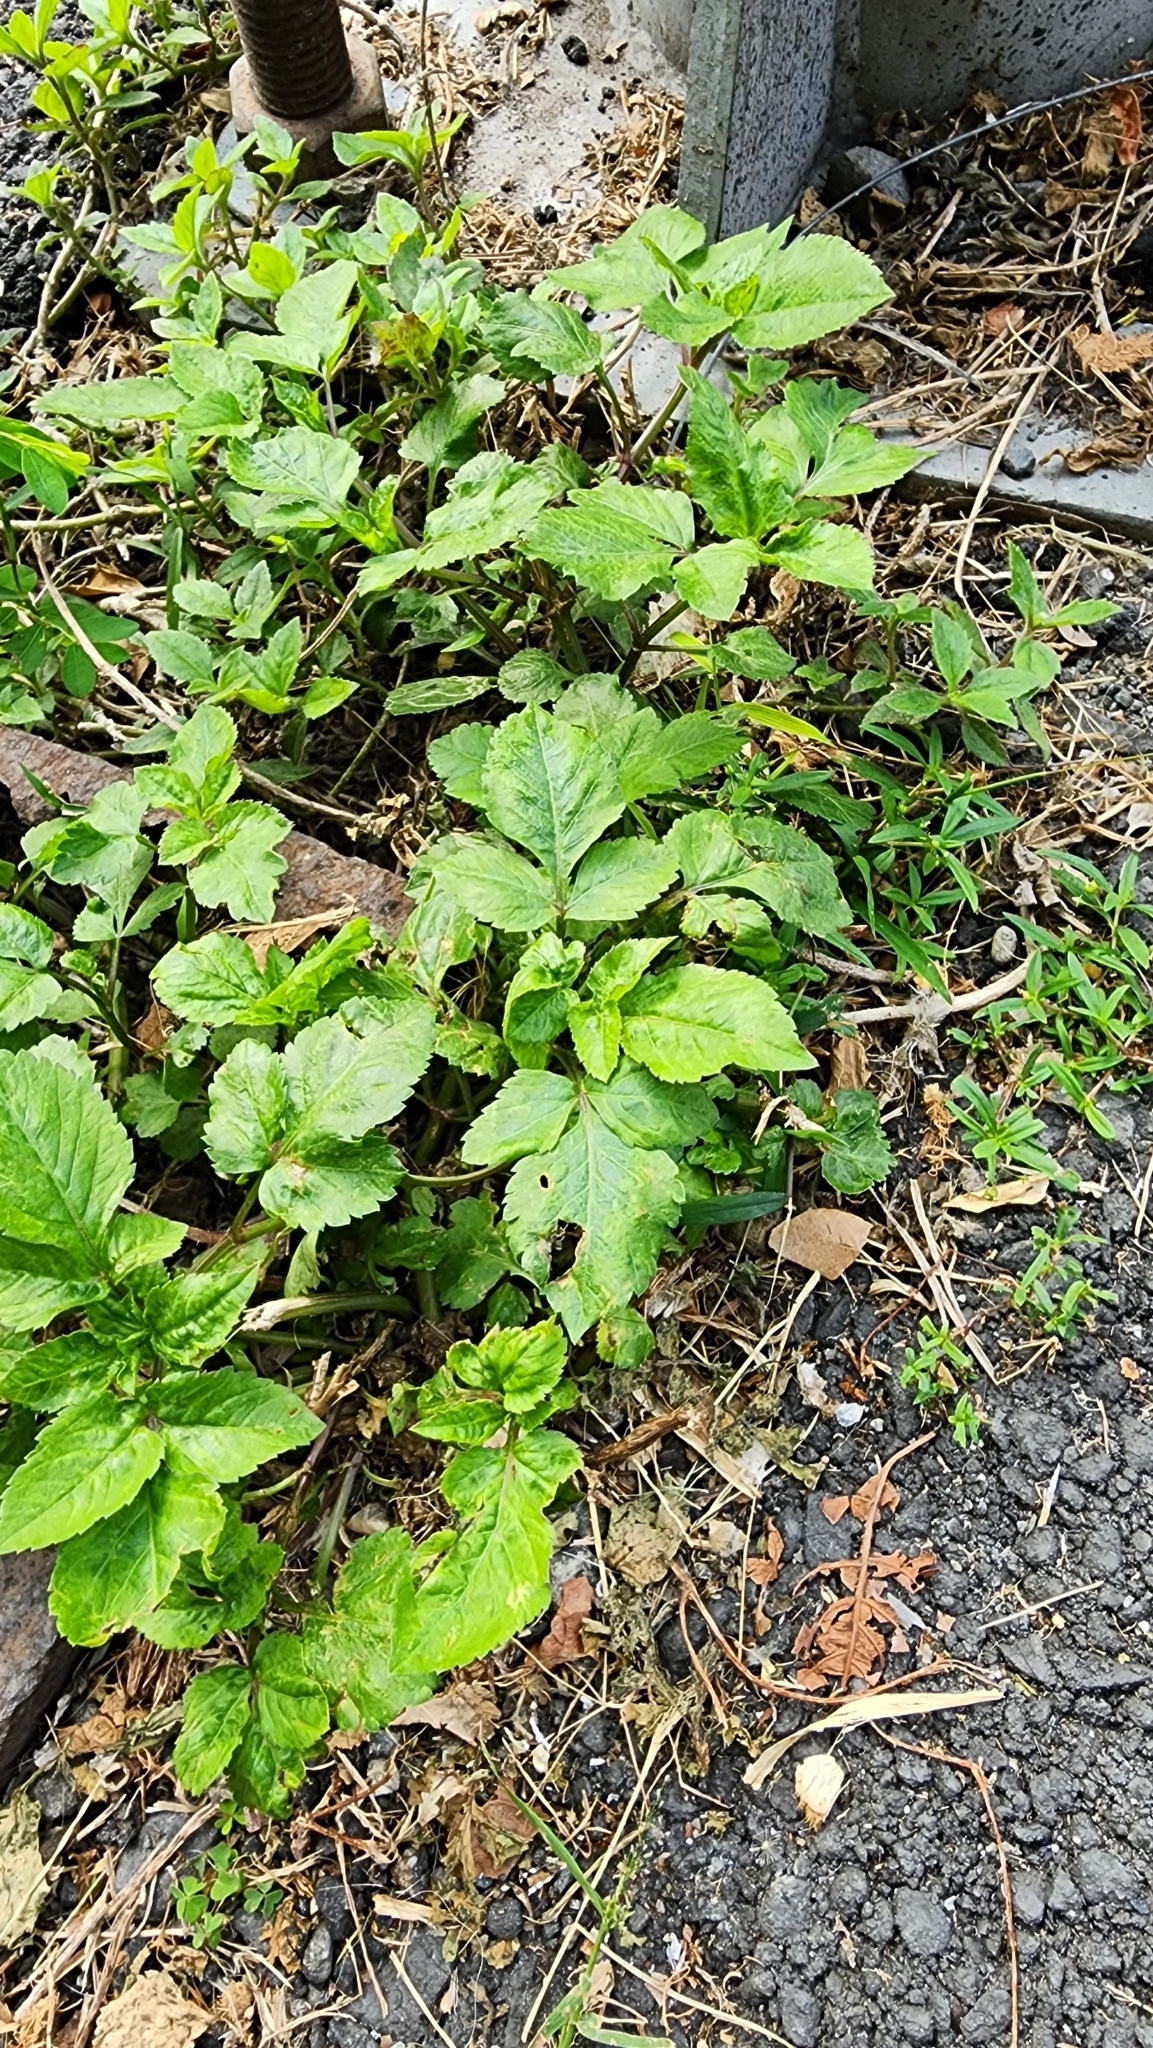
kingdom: Plantae
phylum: Tracheophyta
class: Magnoliopsida
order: Asterales
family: Asteraceae
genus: Bidens
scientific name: Bidens alba
